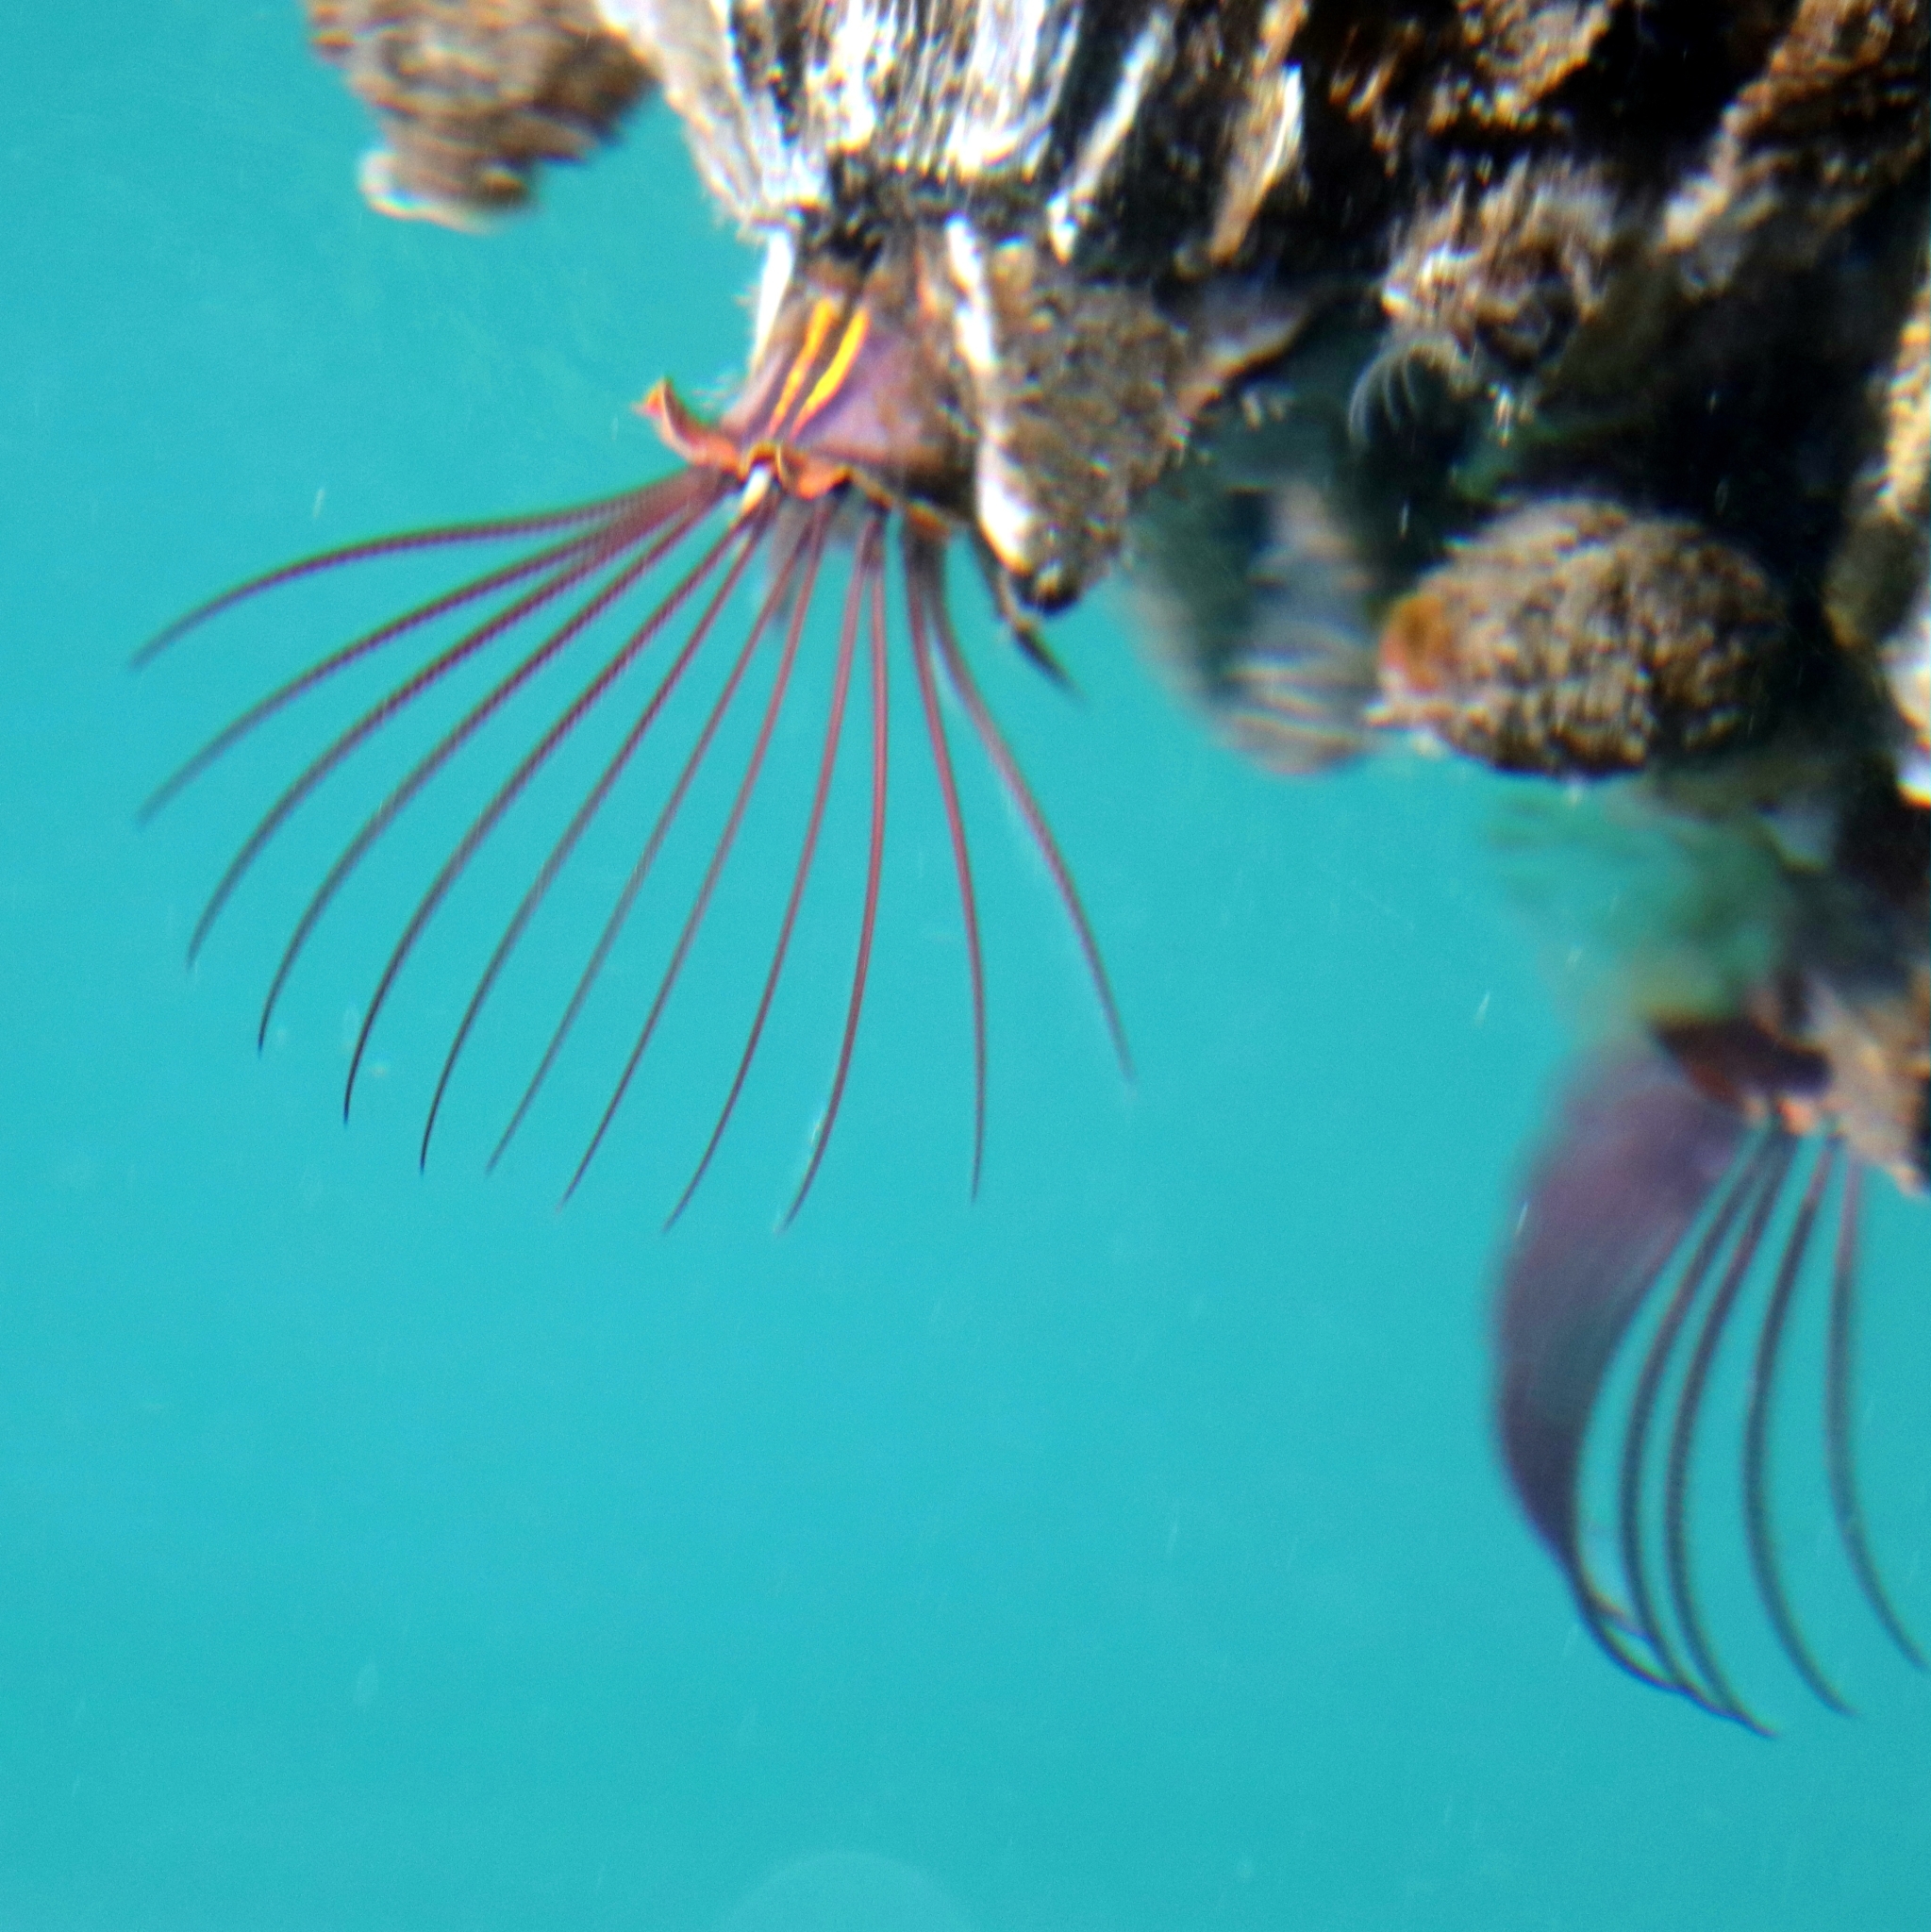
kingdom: Animalia
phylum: Arthropoda
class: Maxillopoda
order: Sessilia
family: Balanidae
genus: Balanus
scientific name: Balanus nubilus
